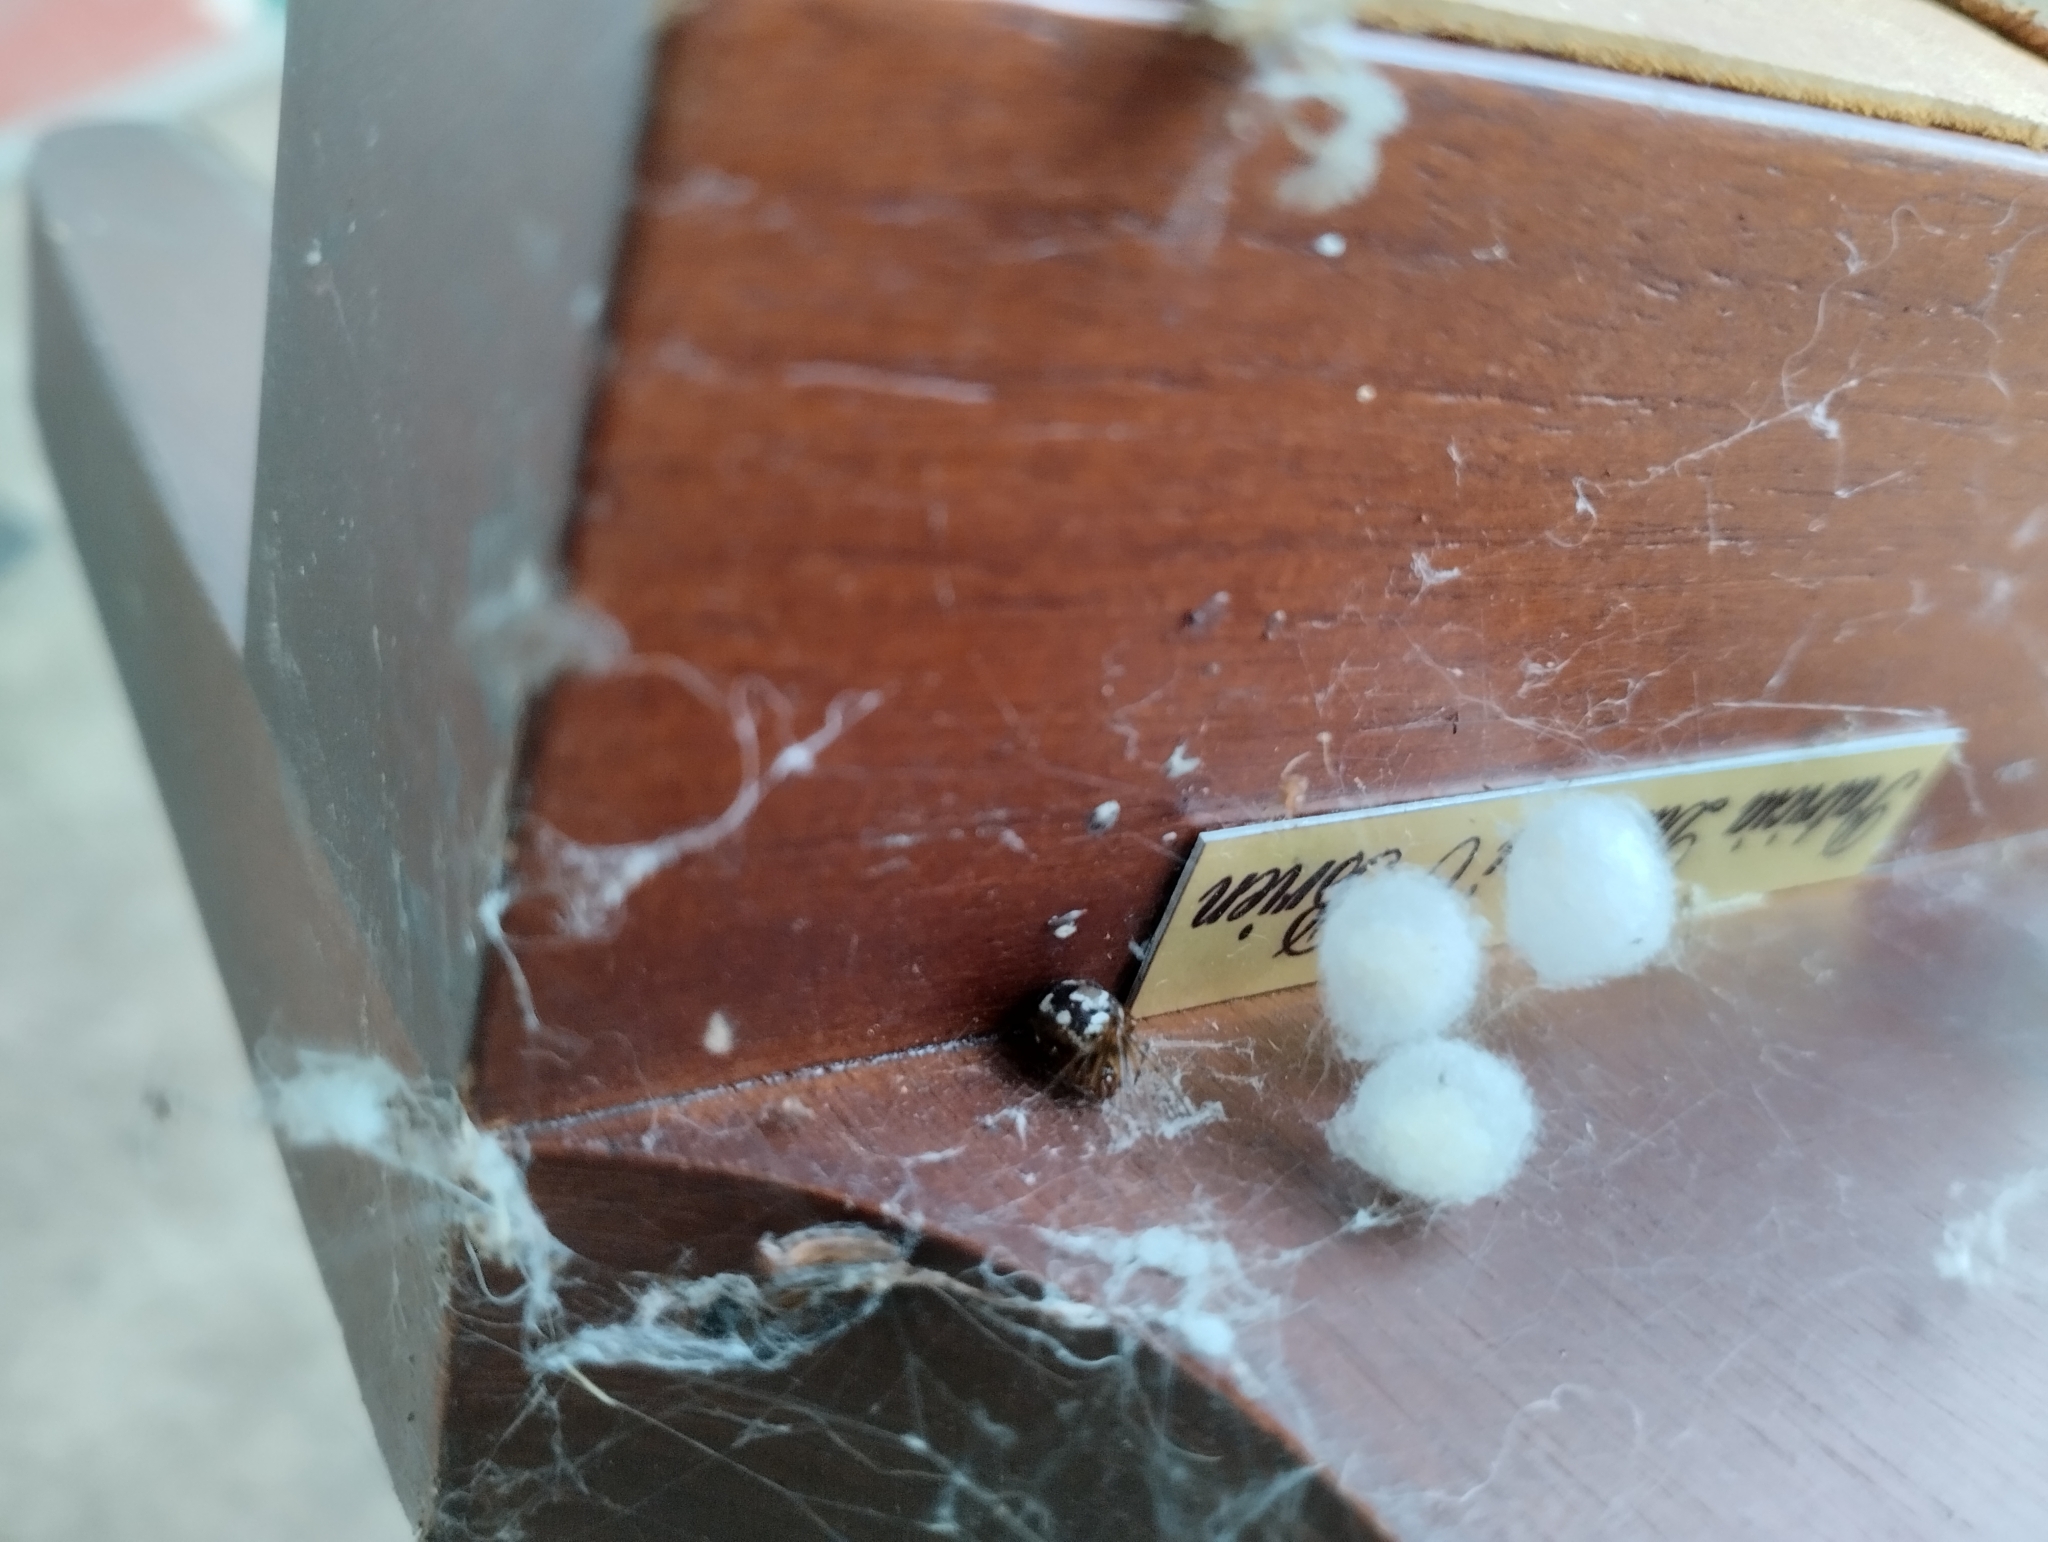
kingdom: Animalia
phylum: Arthropoda
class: Arachnida
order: Araneae
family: Theridiidae
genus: Steatoda
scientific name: Steatoda triangulosa
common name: Triangulate bud spider
